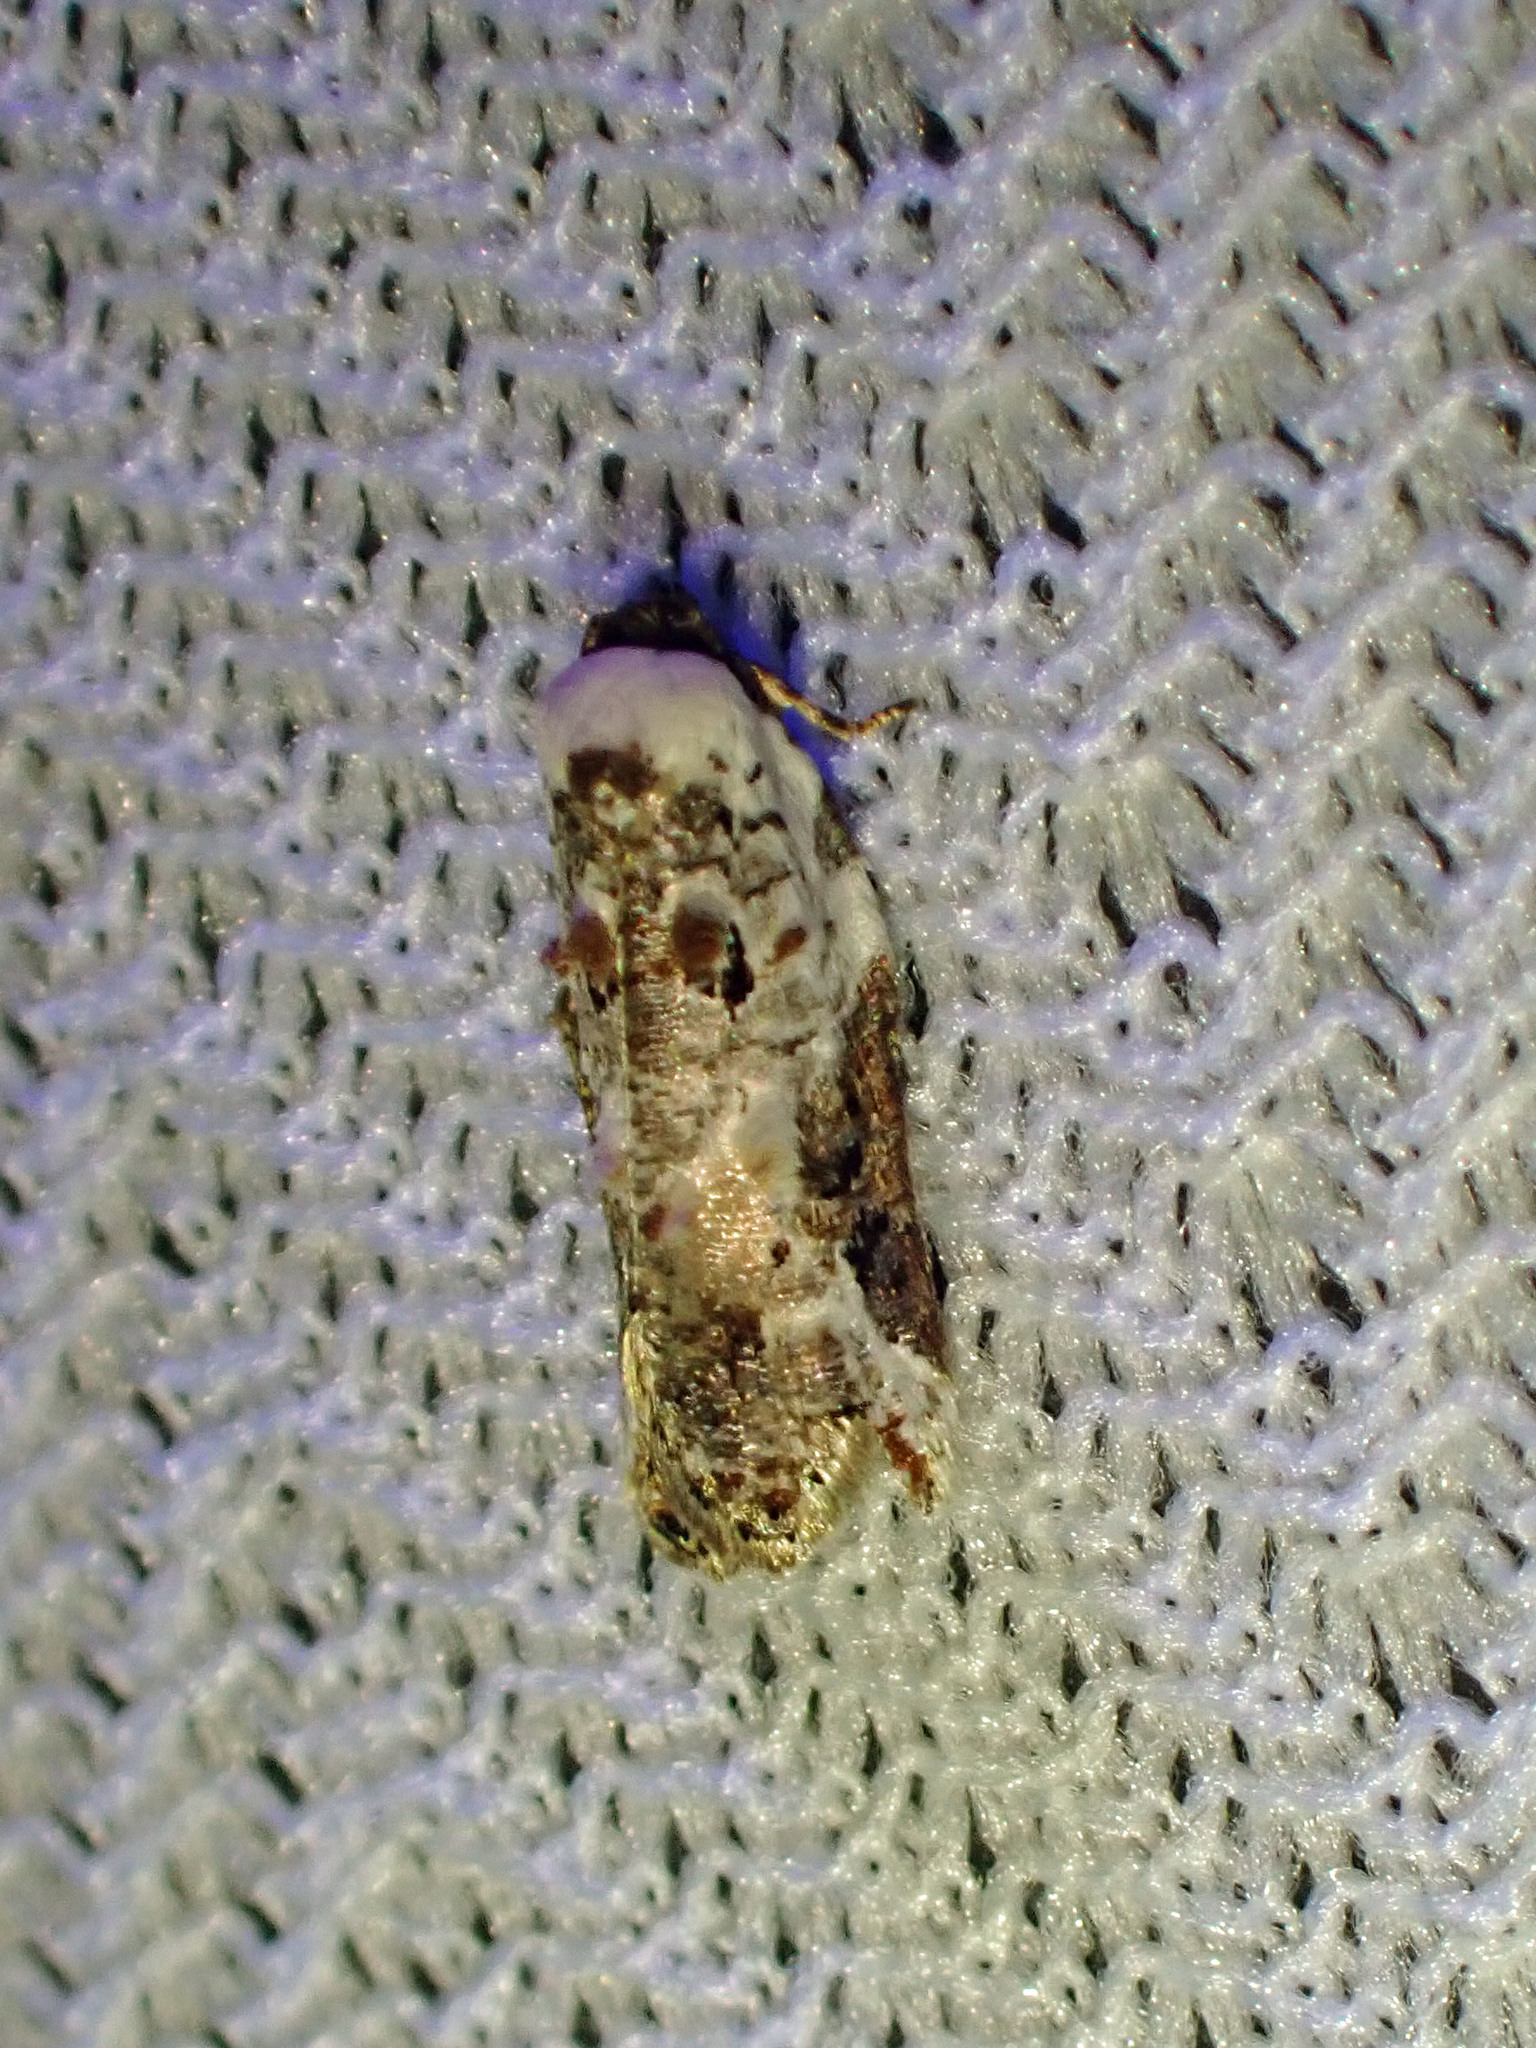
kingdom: Animalia
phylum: Arthropoda
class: Insecta
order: Lepidoptera
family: Tortricidae
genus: Acleris
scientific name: Acleris nivisellana
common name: Snowy-shouldered acleris moth
